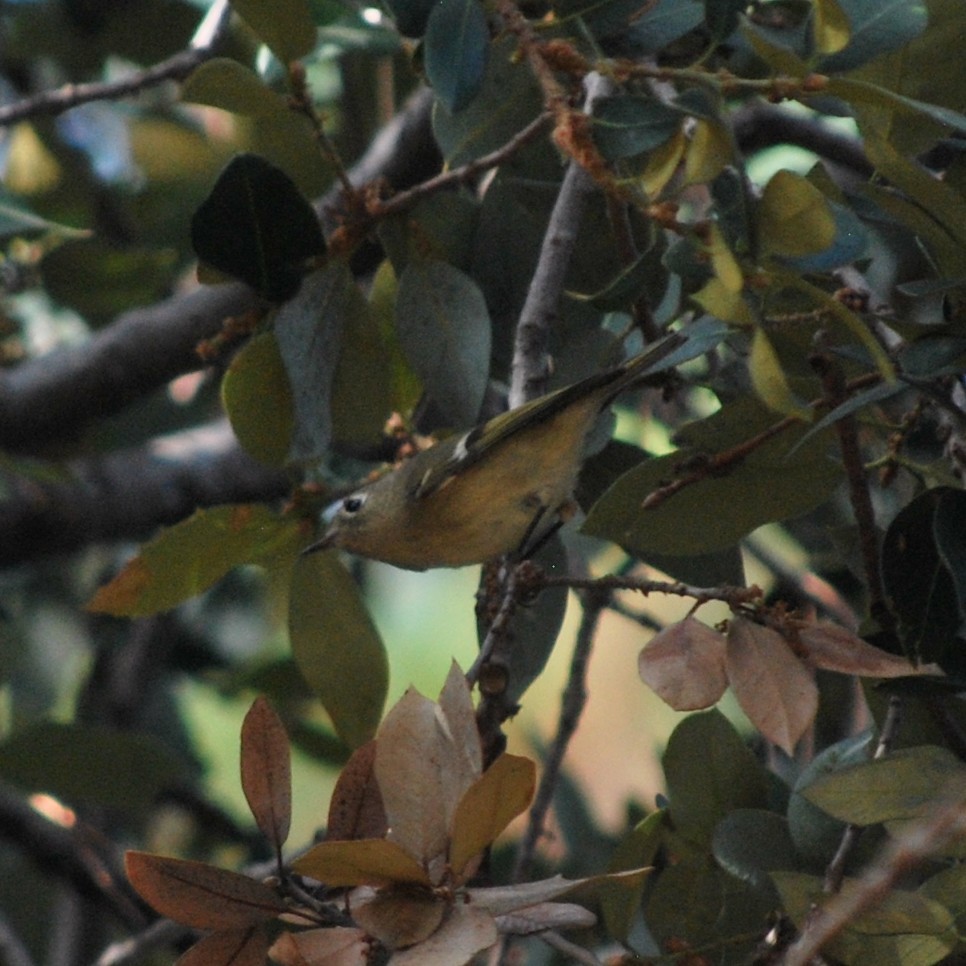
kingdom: Animalia
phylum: Chordata
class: Aves
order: Passeriformes
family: Regulidae
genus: Regulus
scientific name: Regulus calendula
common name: Ruby-crowned kinglet
